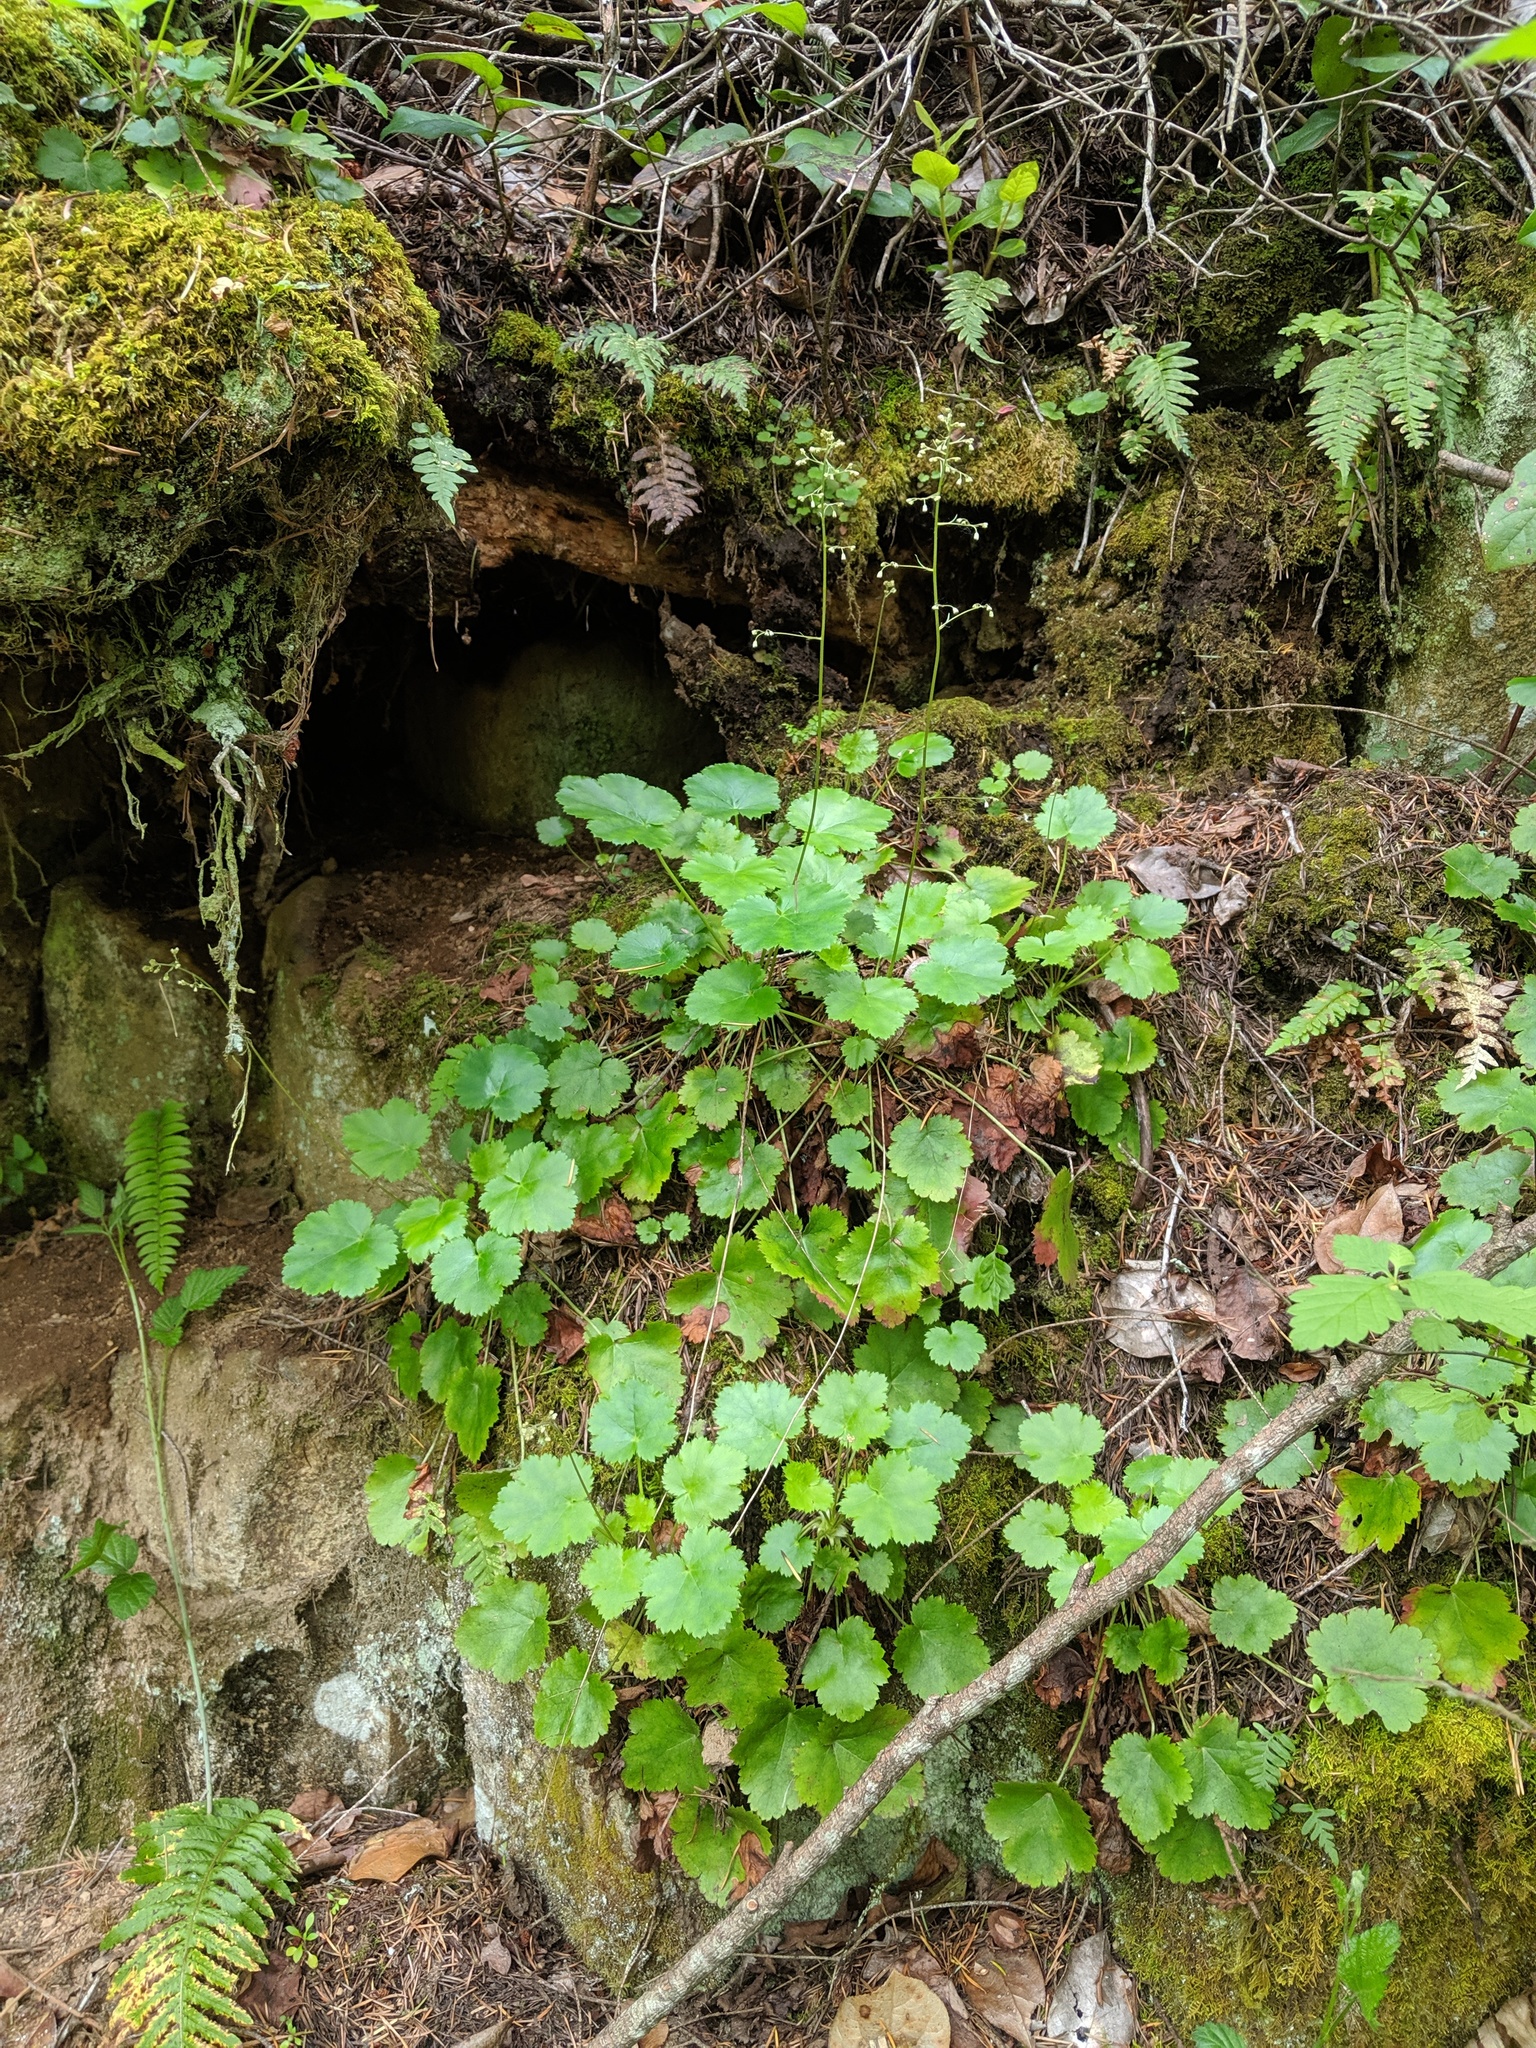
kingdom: Plantae
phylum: Tracheophyta
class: Magnoliopsida
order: Saxifragales
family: Saxifragaceae
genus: Heuchera
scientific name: Heuchera micrantha
